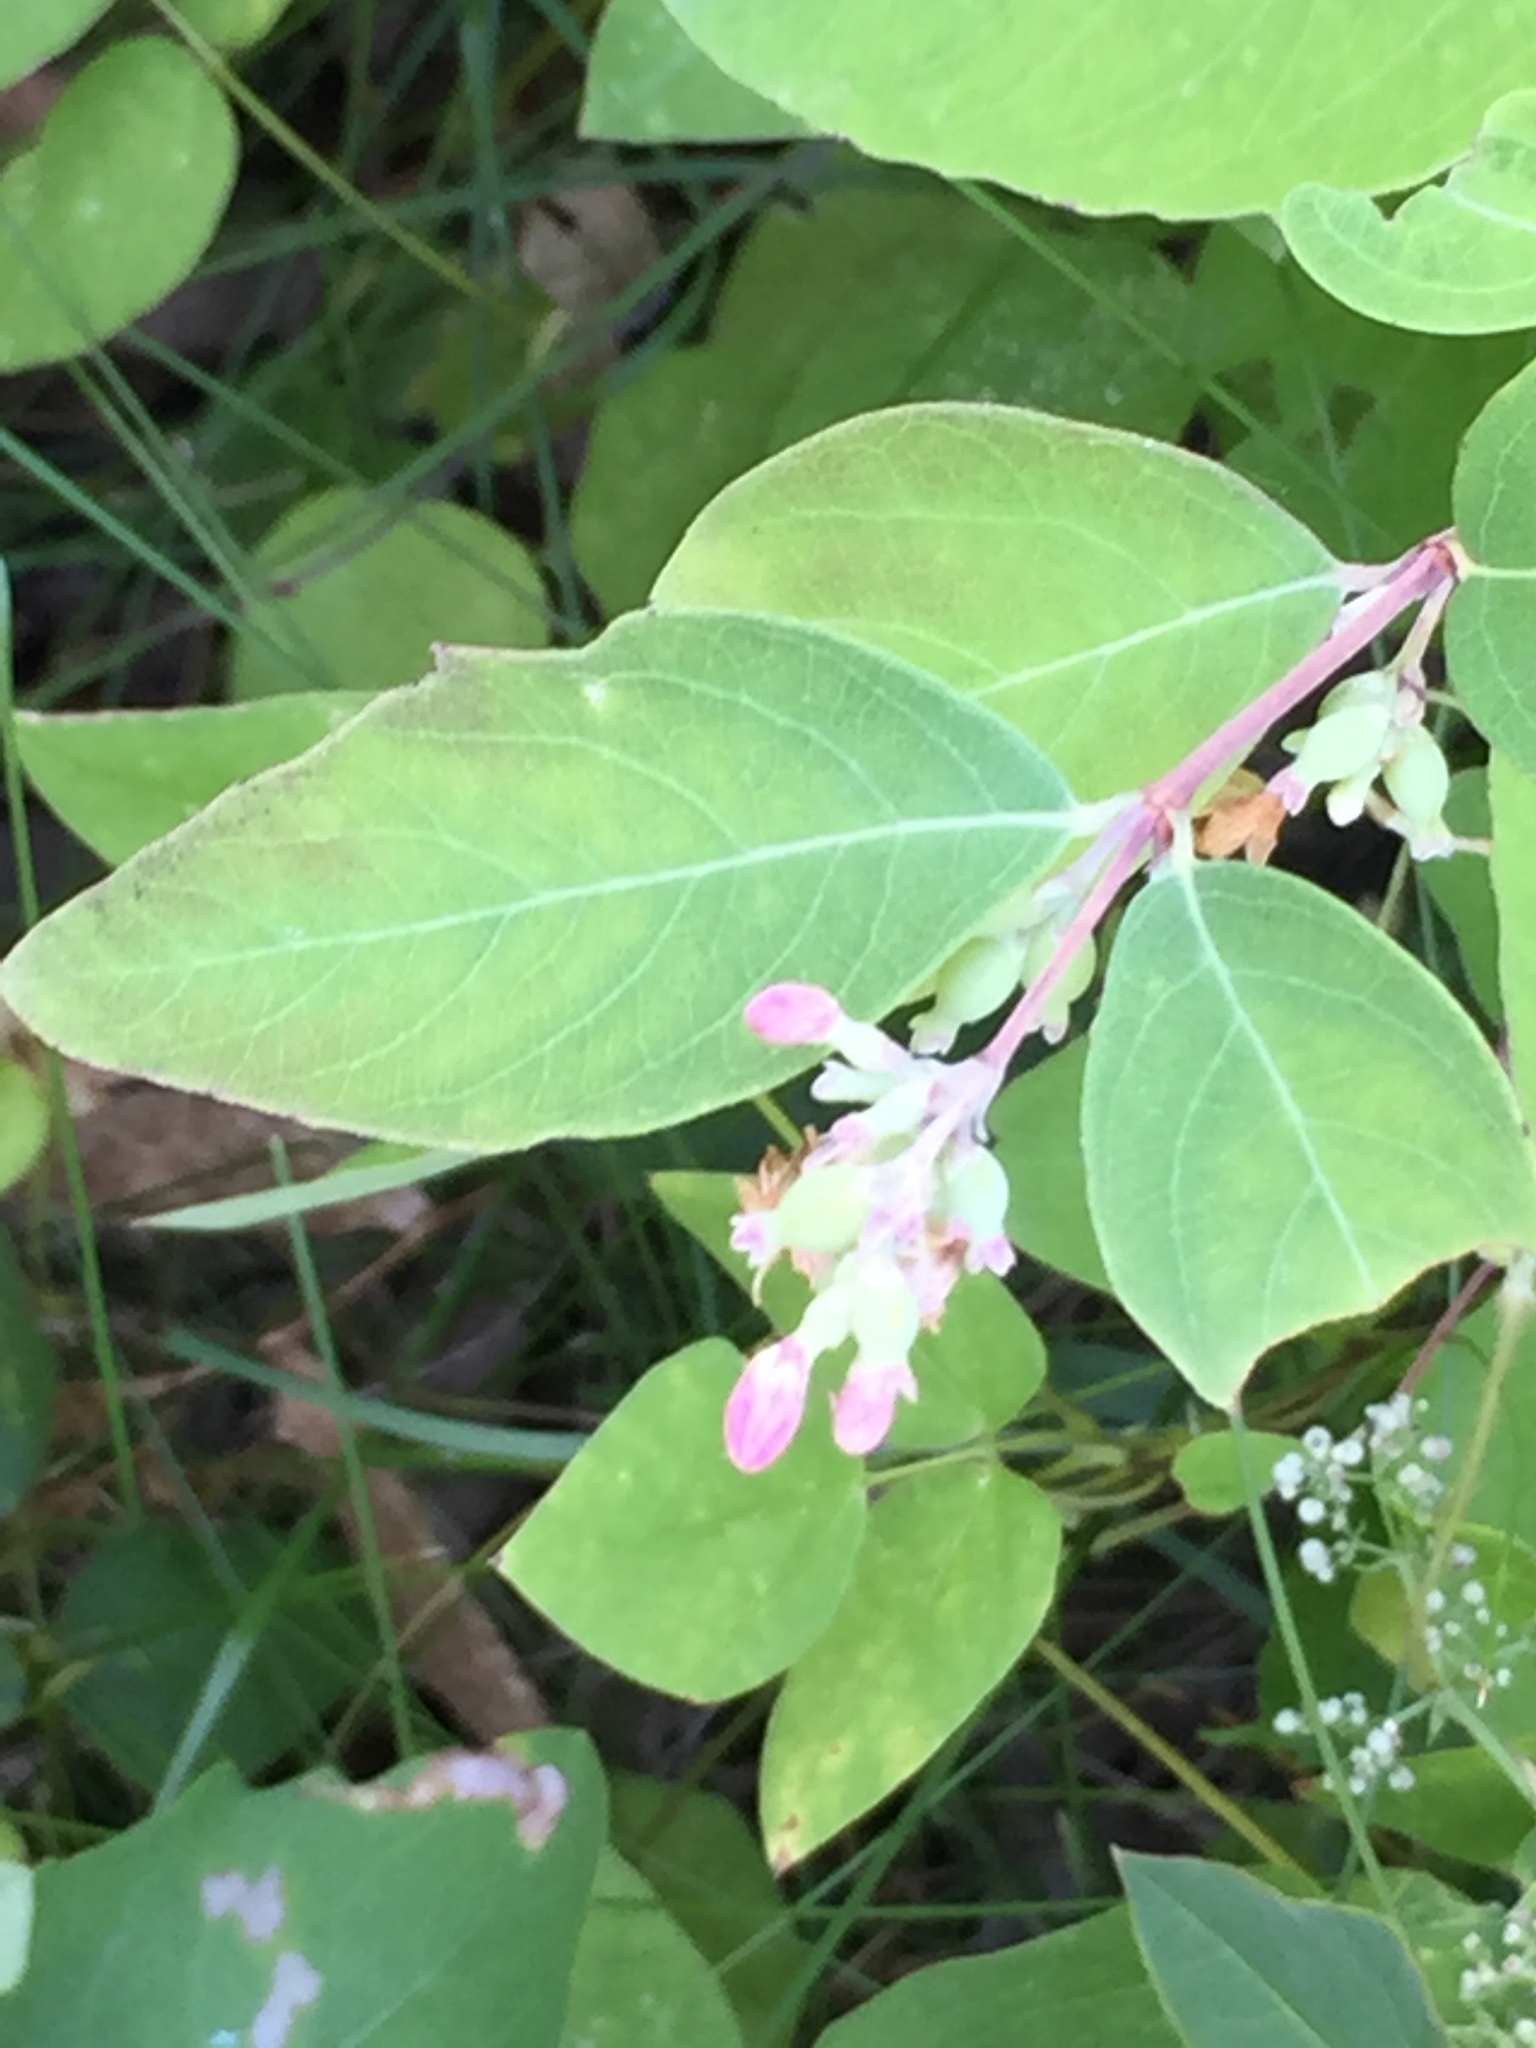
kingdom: Plantae
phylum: Tracheophyta
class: Magnoliopsida
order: Dipsacales
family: Caprifoliaceae
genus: Symphoricarpos
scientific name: Symphoricarpos occidentalis
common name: Wolfberry
